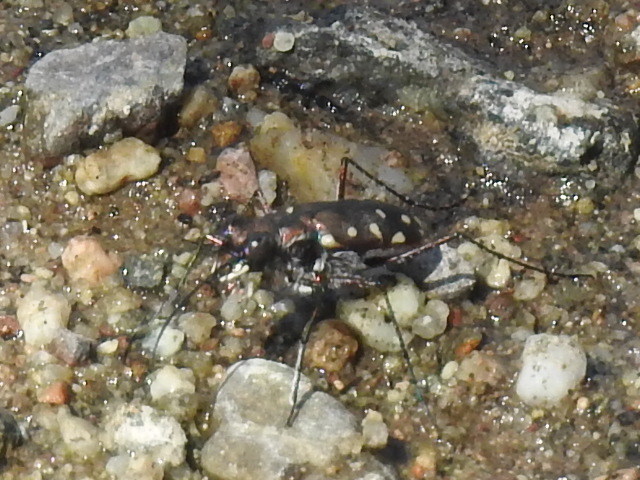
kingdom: Animalia
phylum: Arthropoda
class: Insecta
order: Coleoptera
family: Carabidae
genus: Cicindela
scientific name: Cicindela sedecimpunctata
